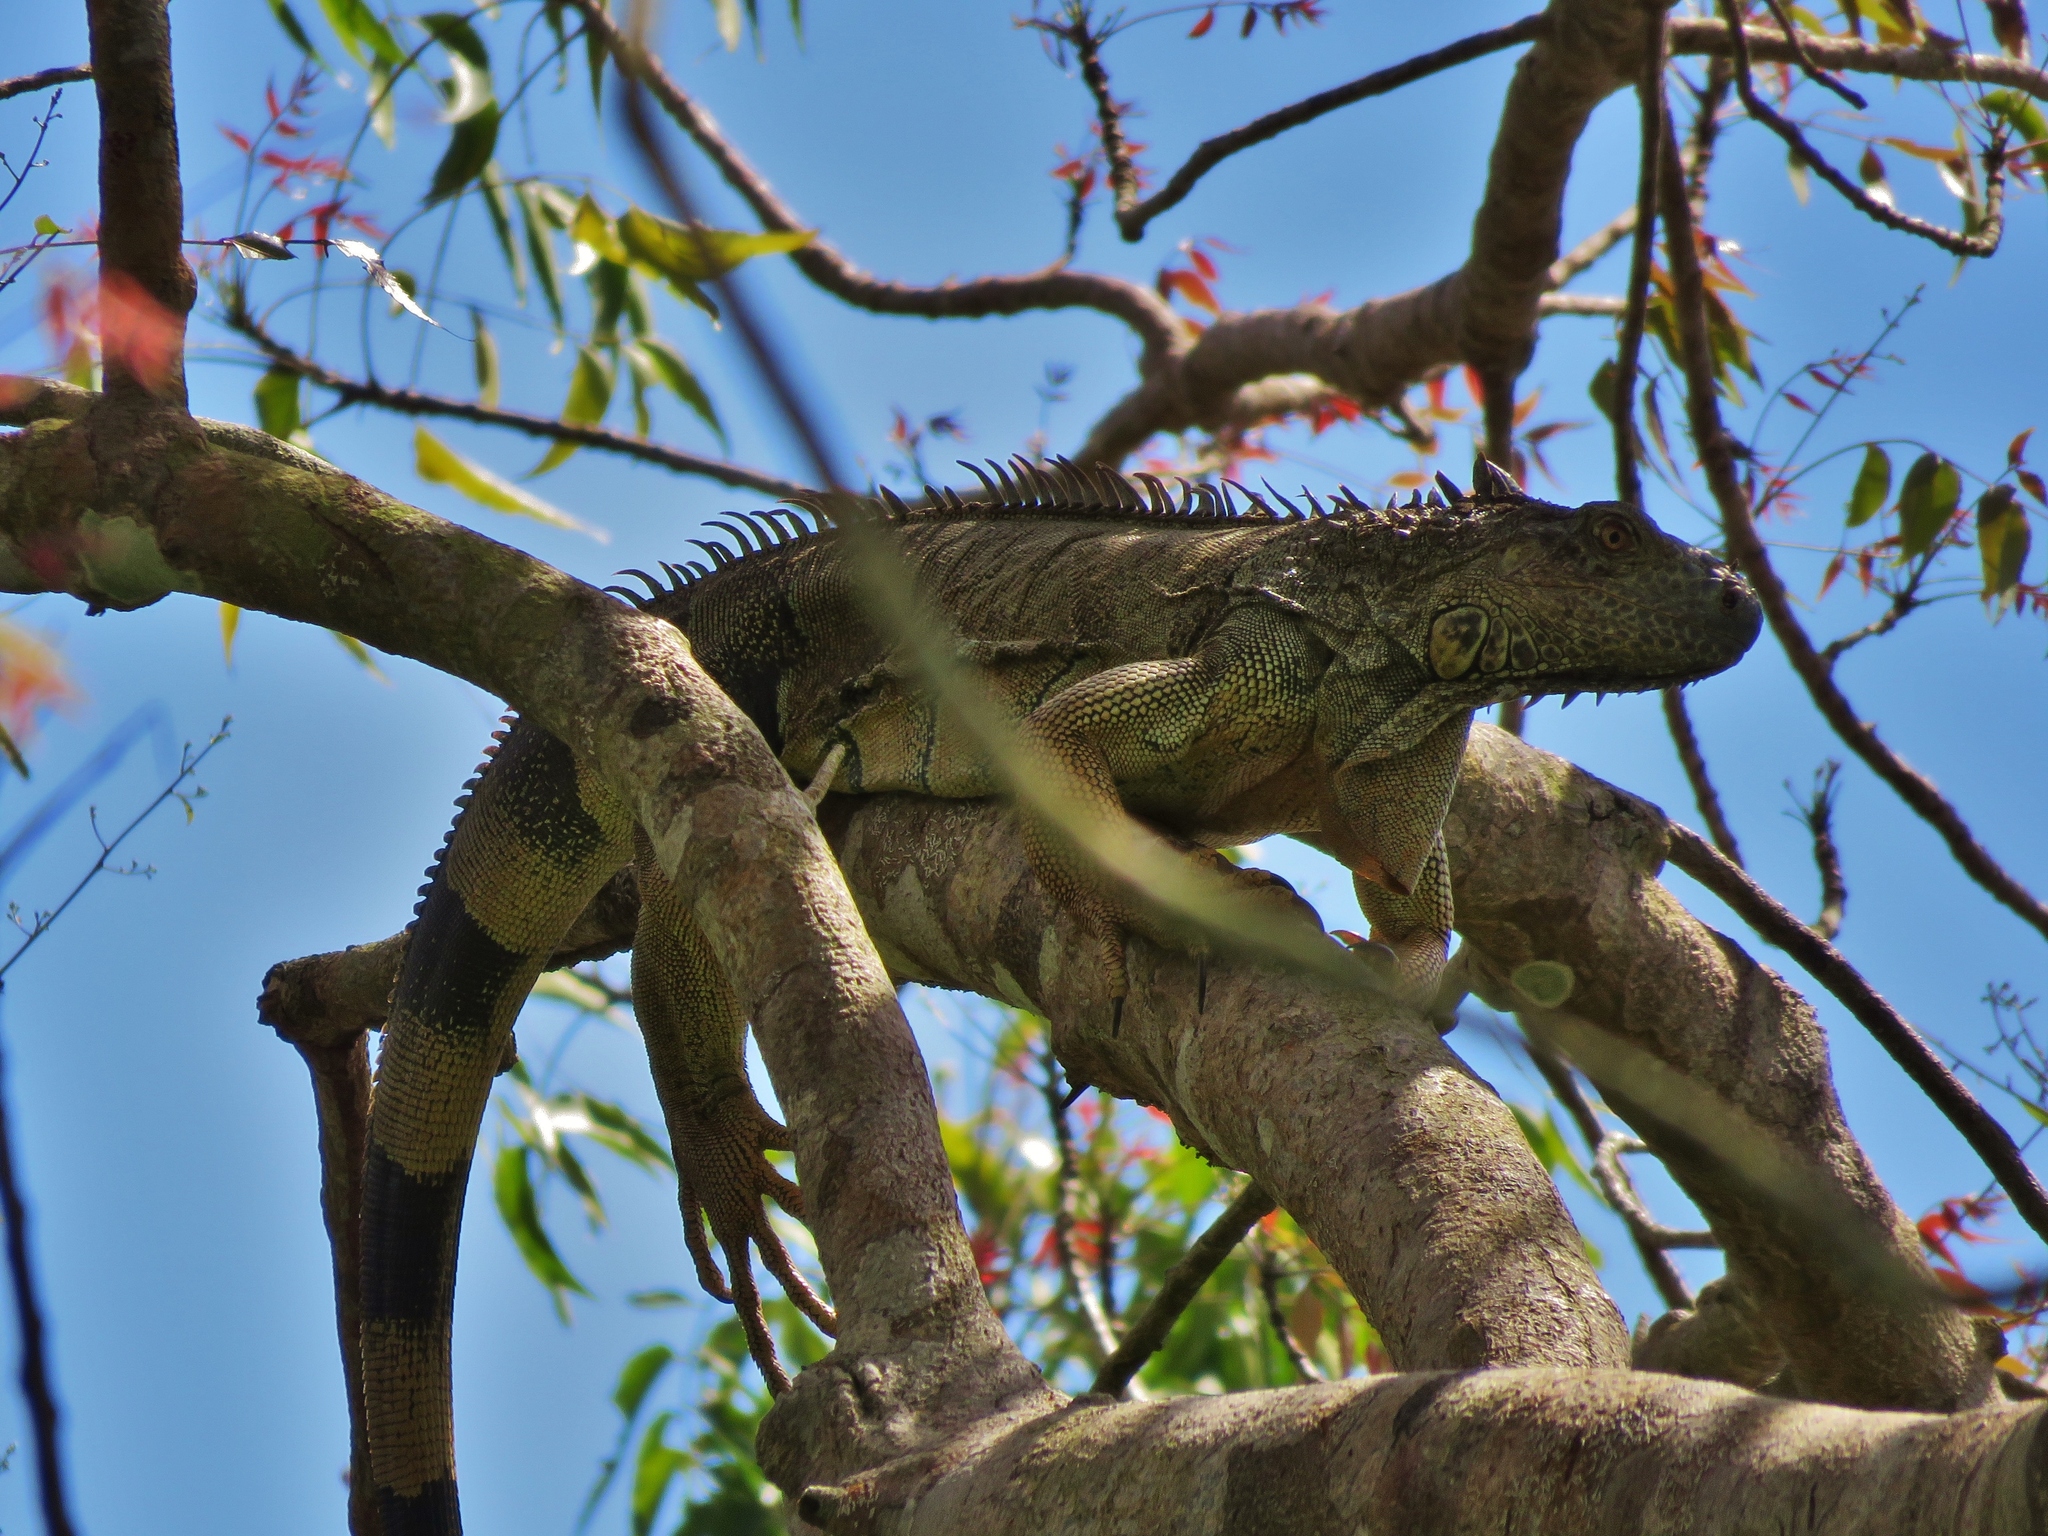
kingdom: Animalia
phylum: Chordata
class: Squamata
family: Iguanidae
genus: Iguana
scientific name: Iguana iguana
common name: Green iguana
